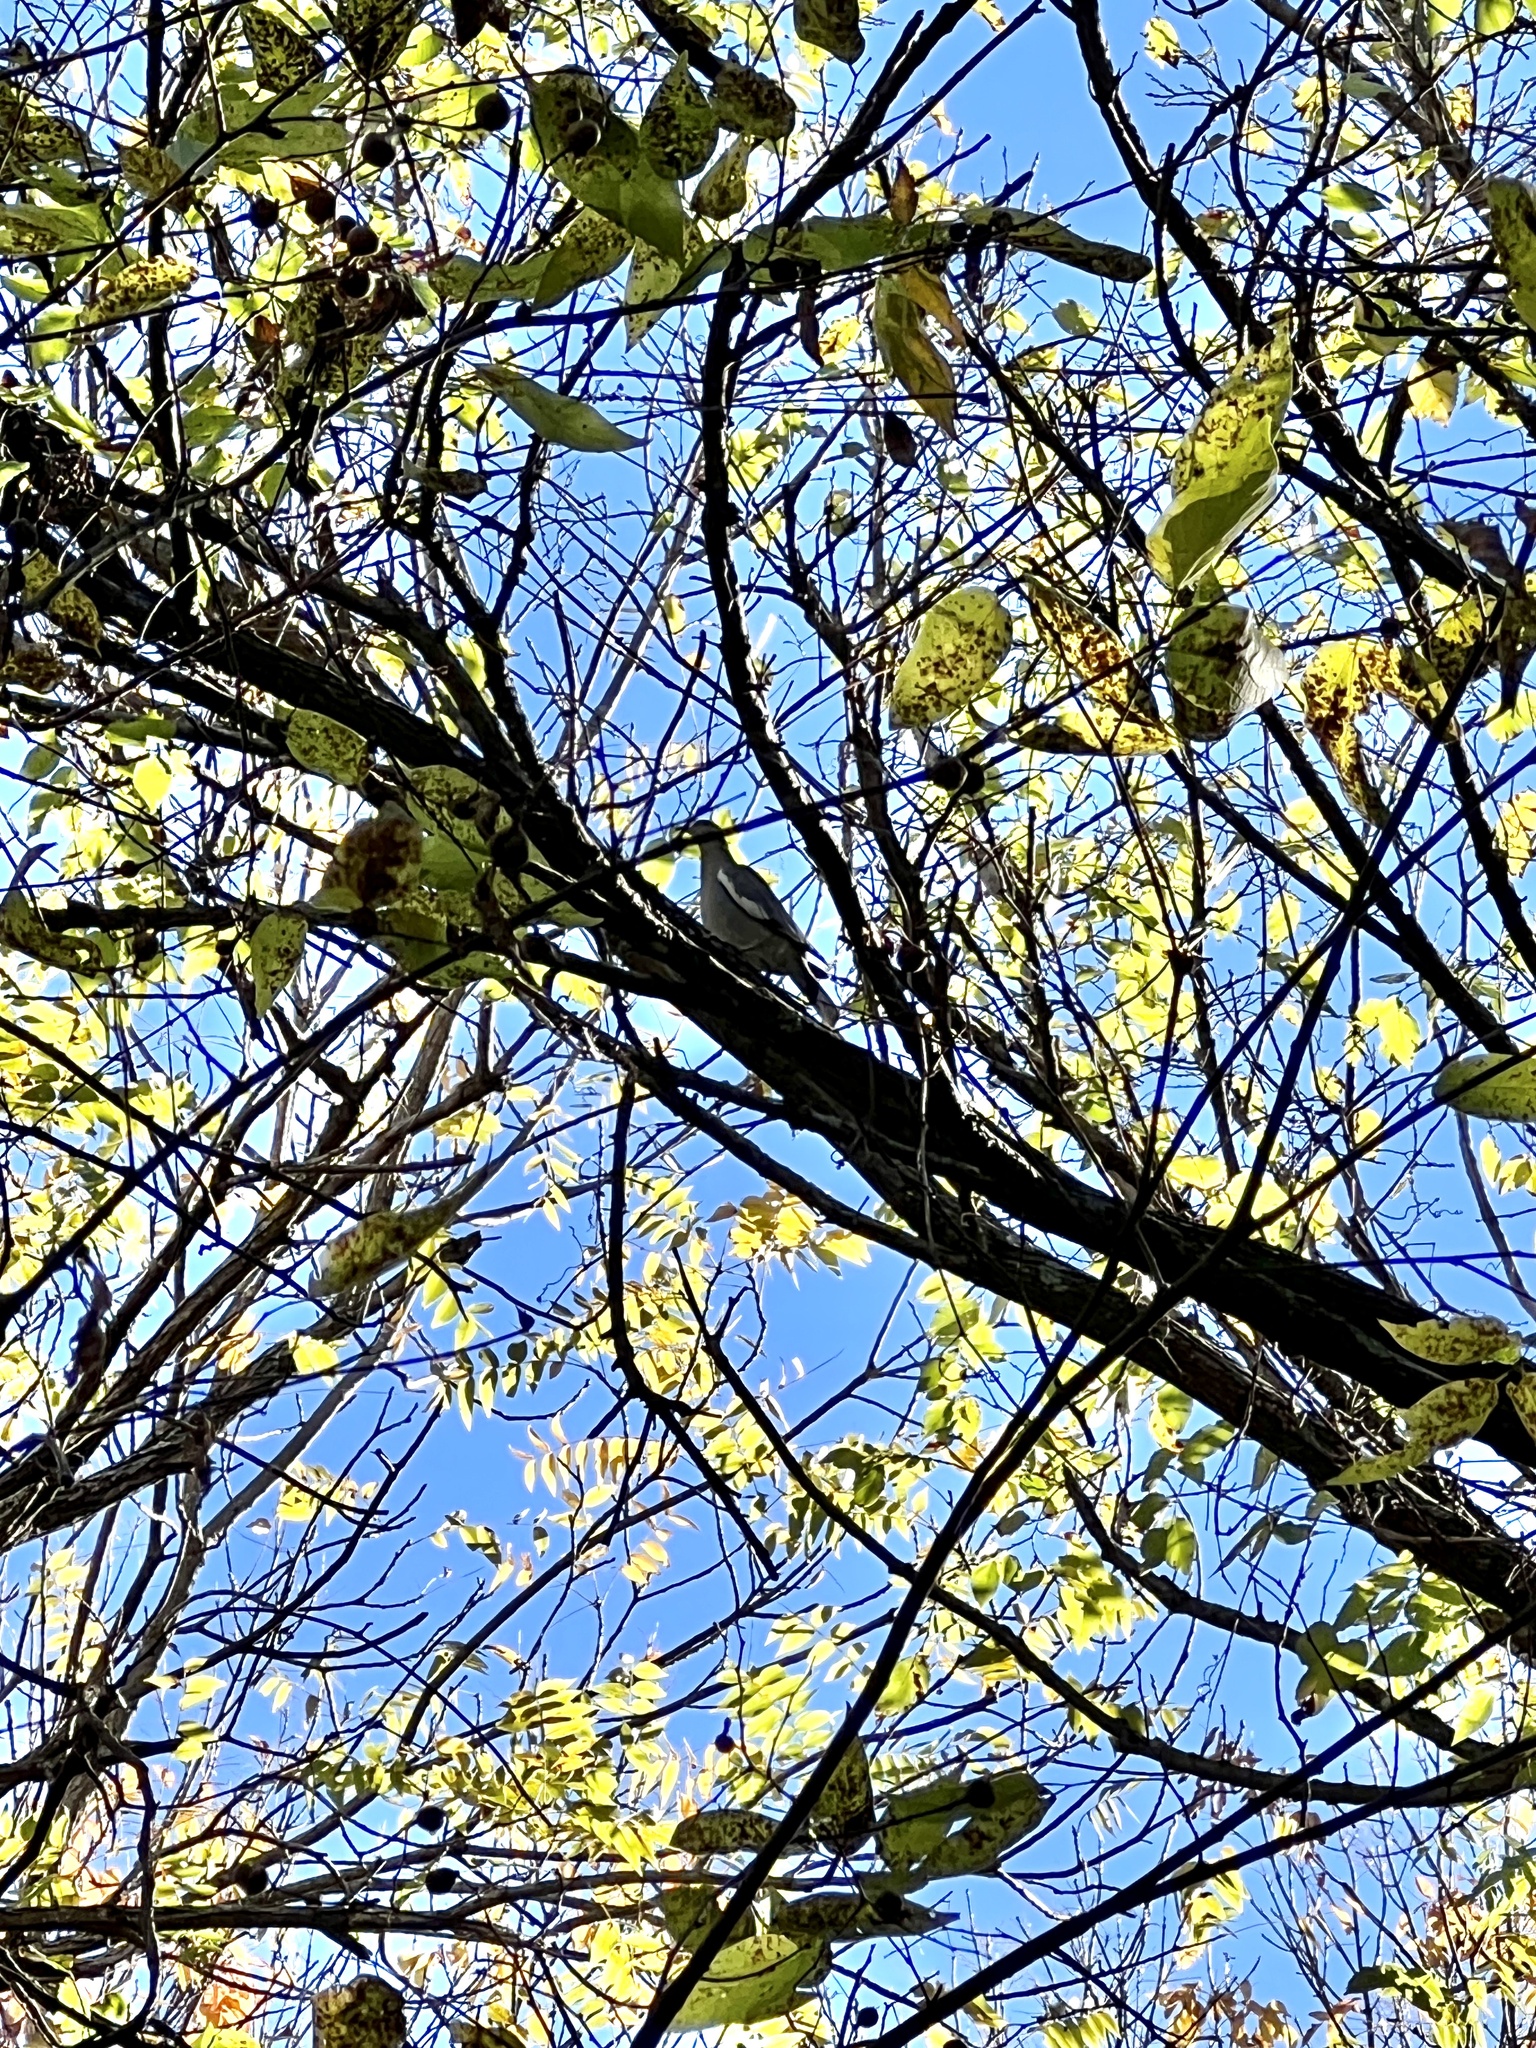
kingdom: Animalia
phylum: Chordata
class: Aves
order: Columbiformes
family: Columbidae
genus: Zenaida
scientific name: Zenaida asiatica
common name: White-winged dove
